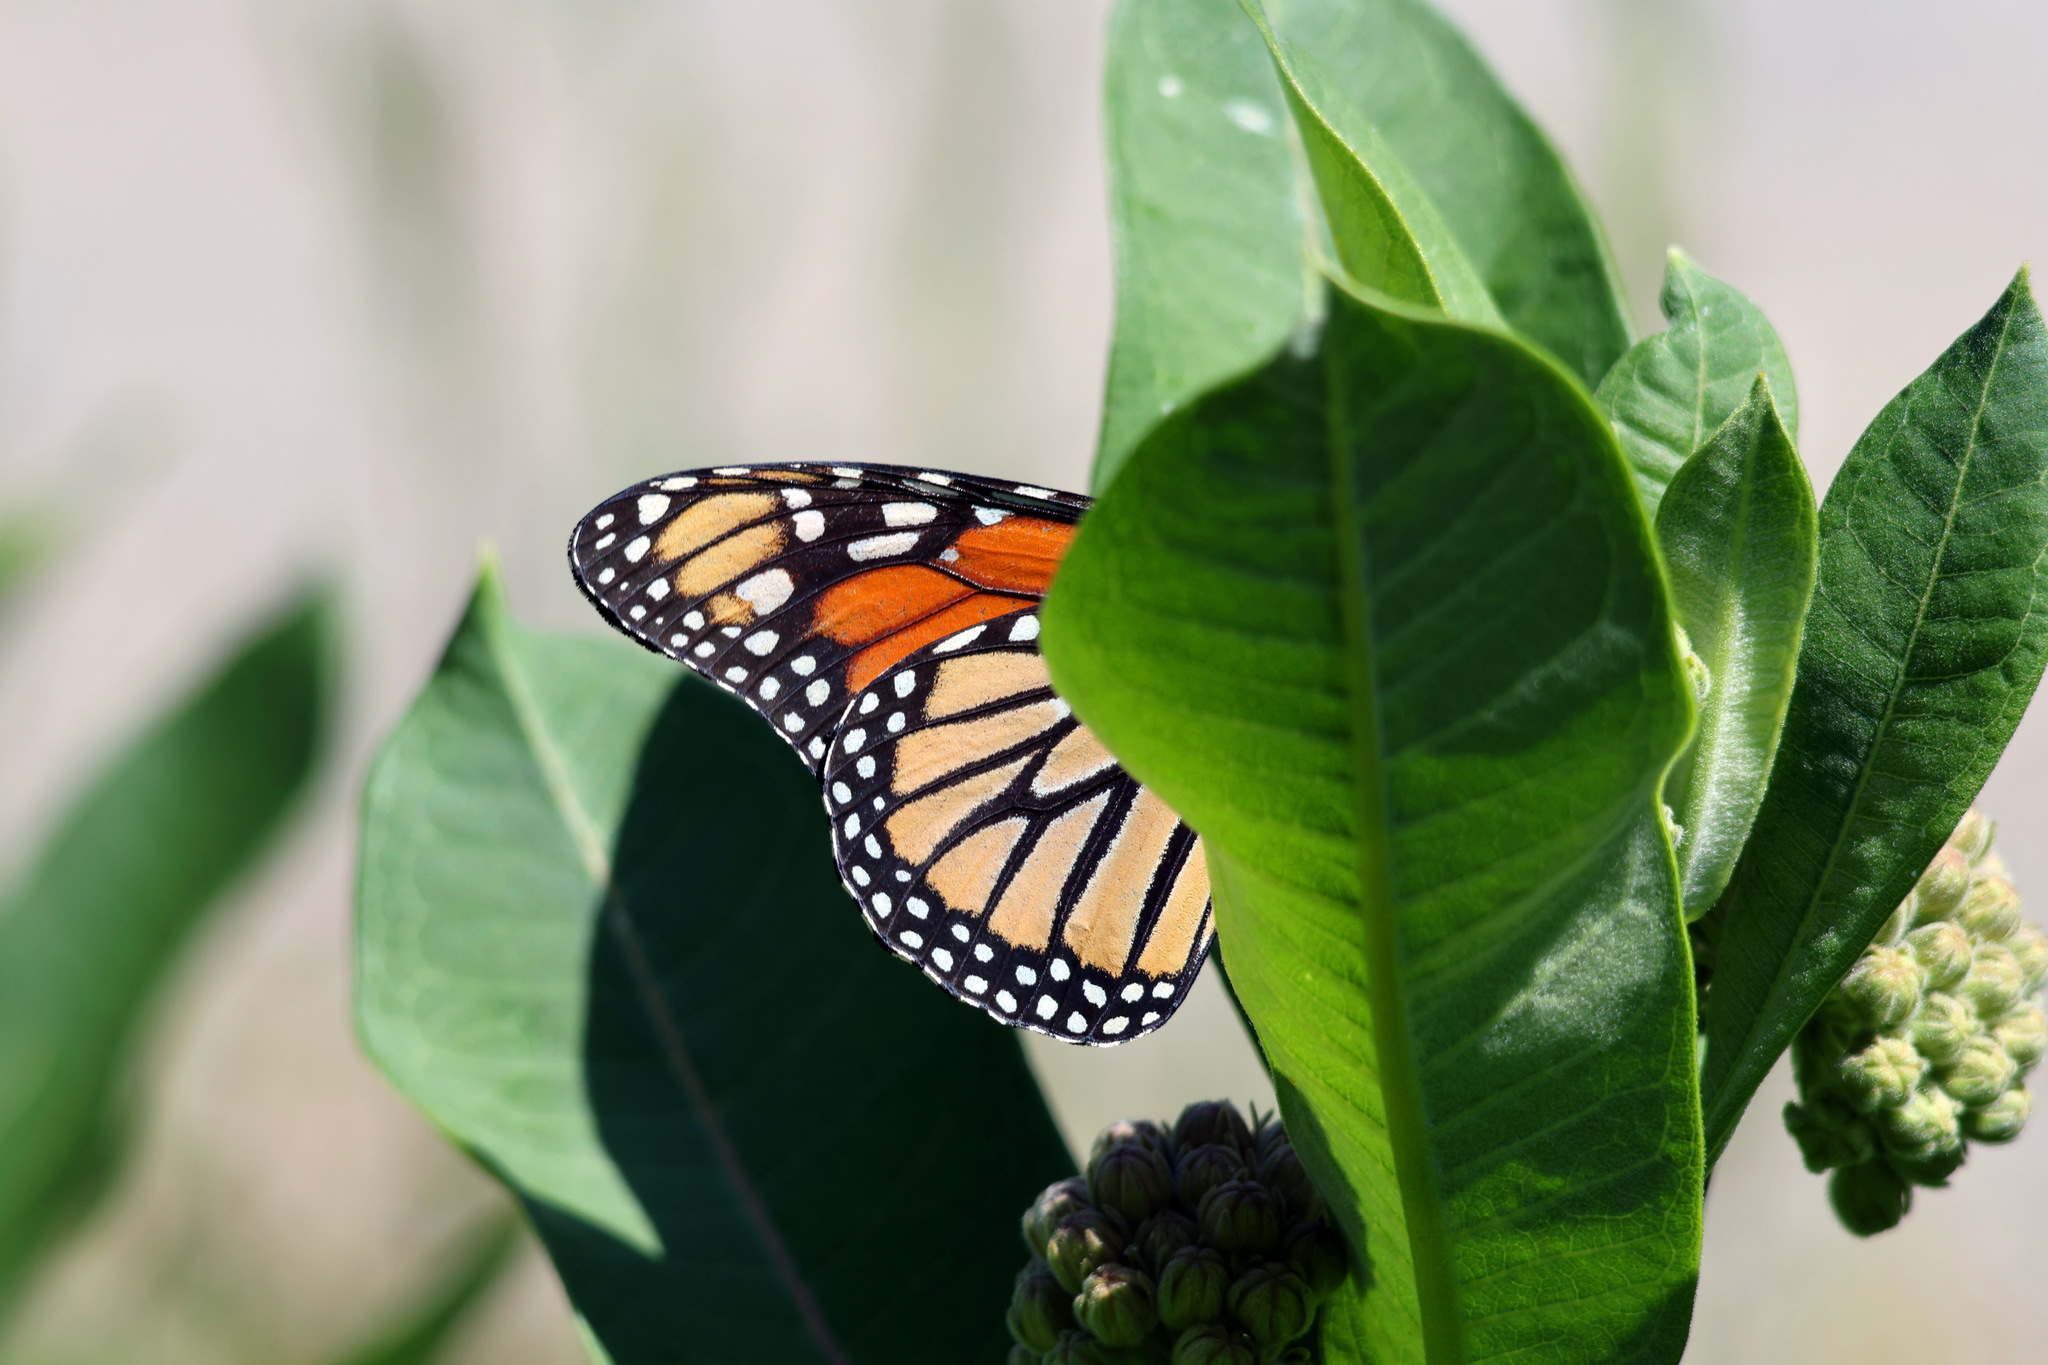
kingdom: Animalia
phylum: Arthropoda
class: Insecta
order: Lepidoptera
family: Nymphalidae
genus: Danaus
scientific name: Danaus plexippus
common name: Monarch
